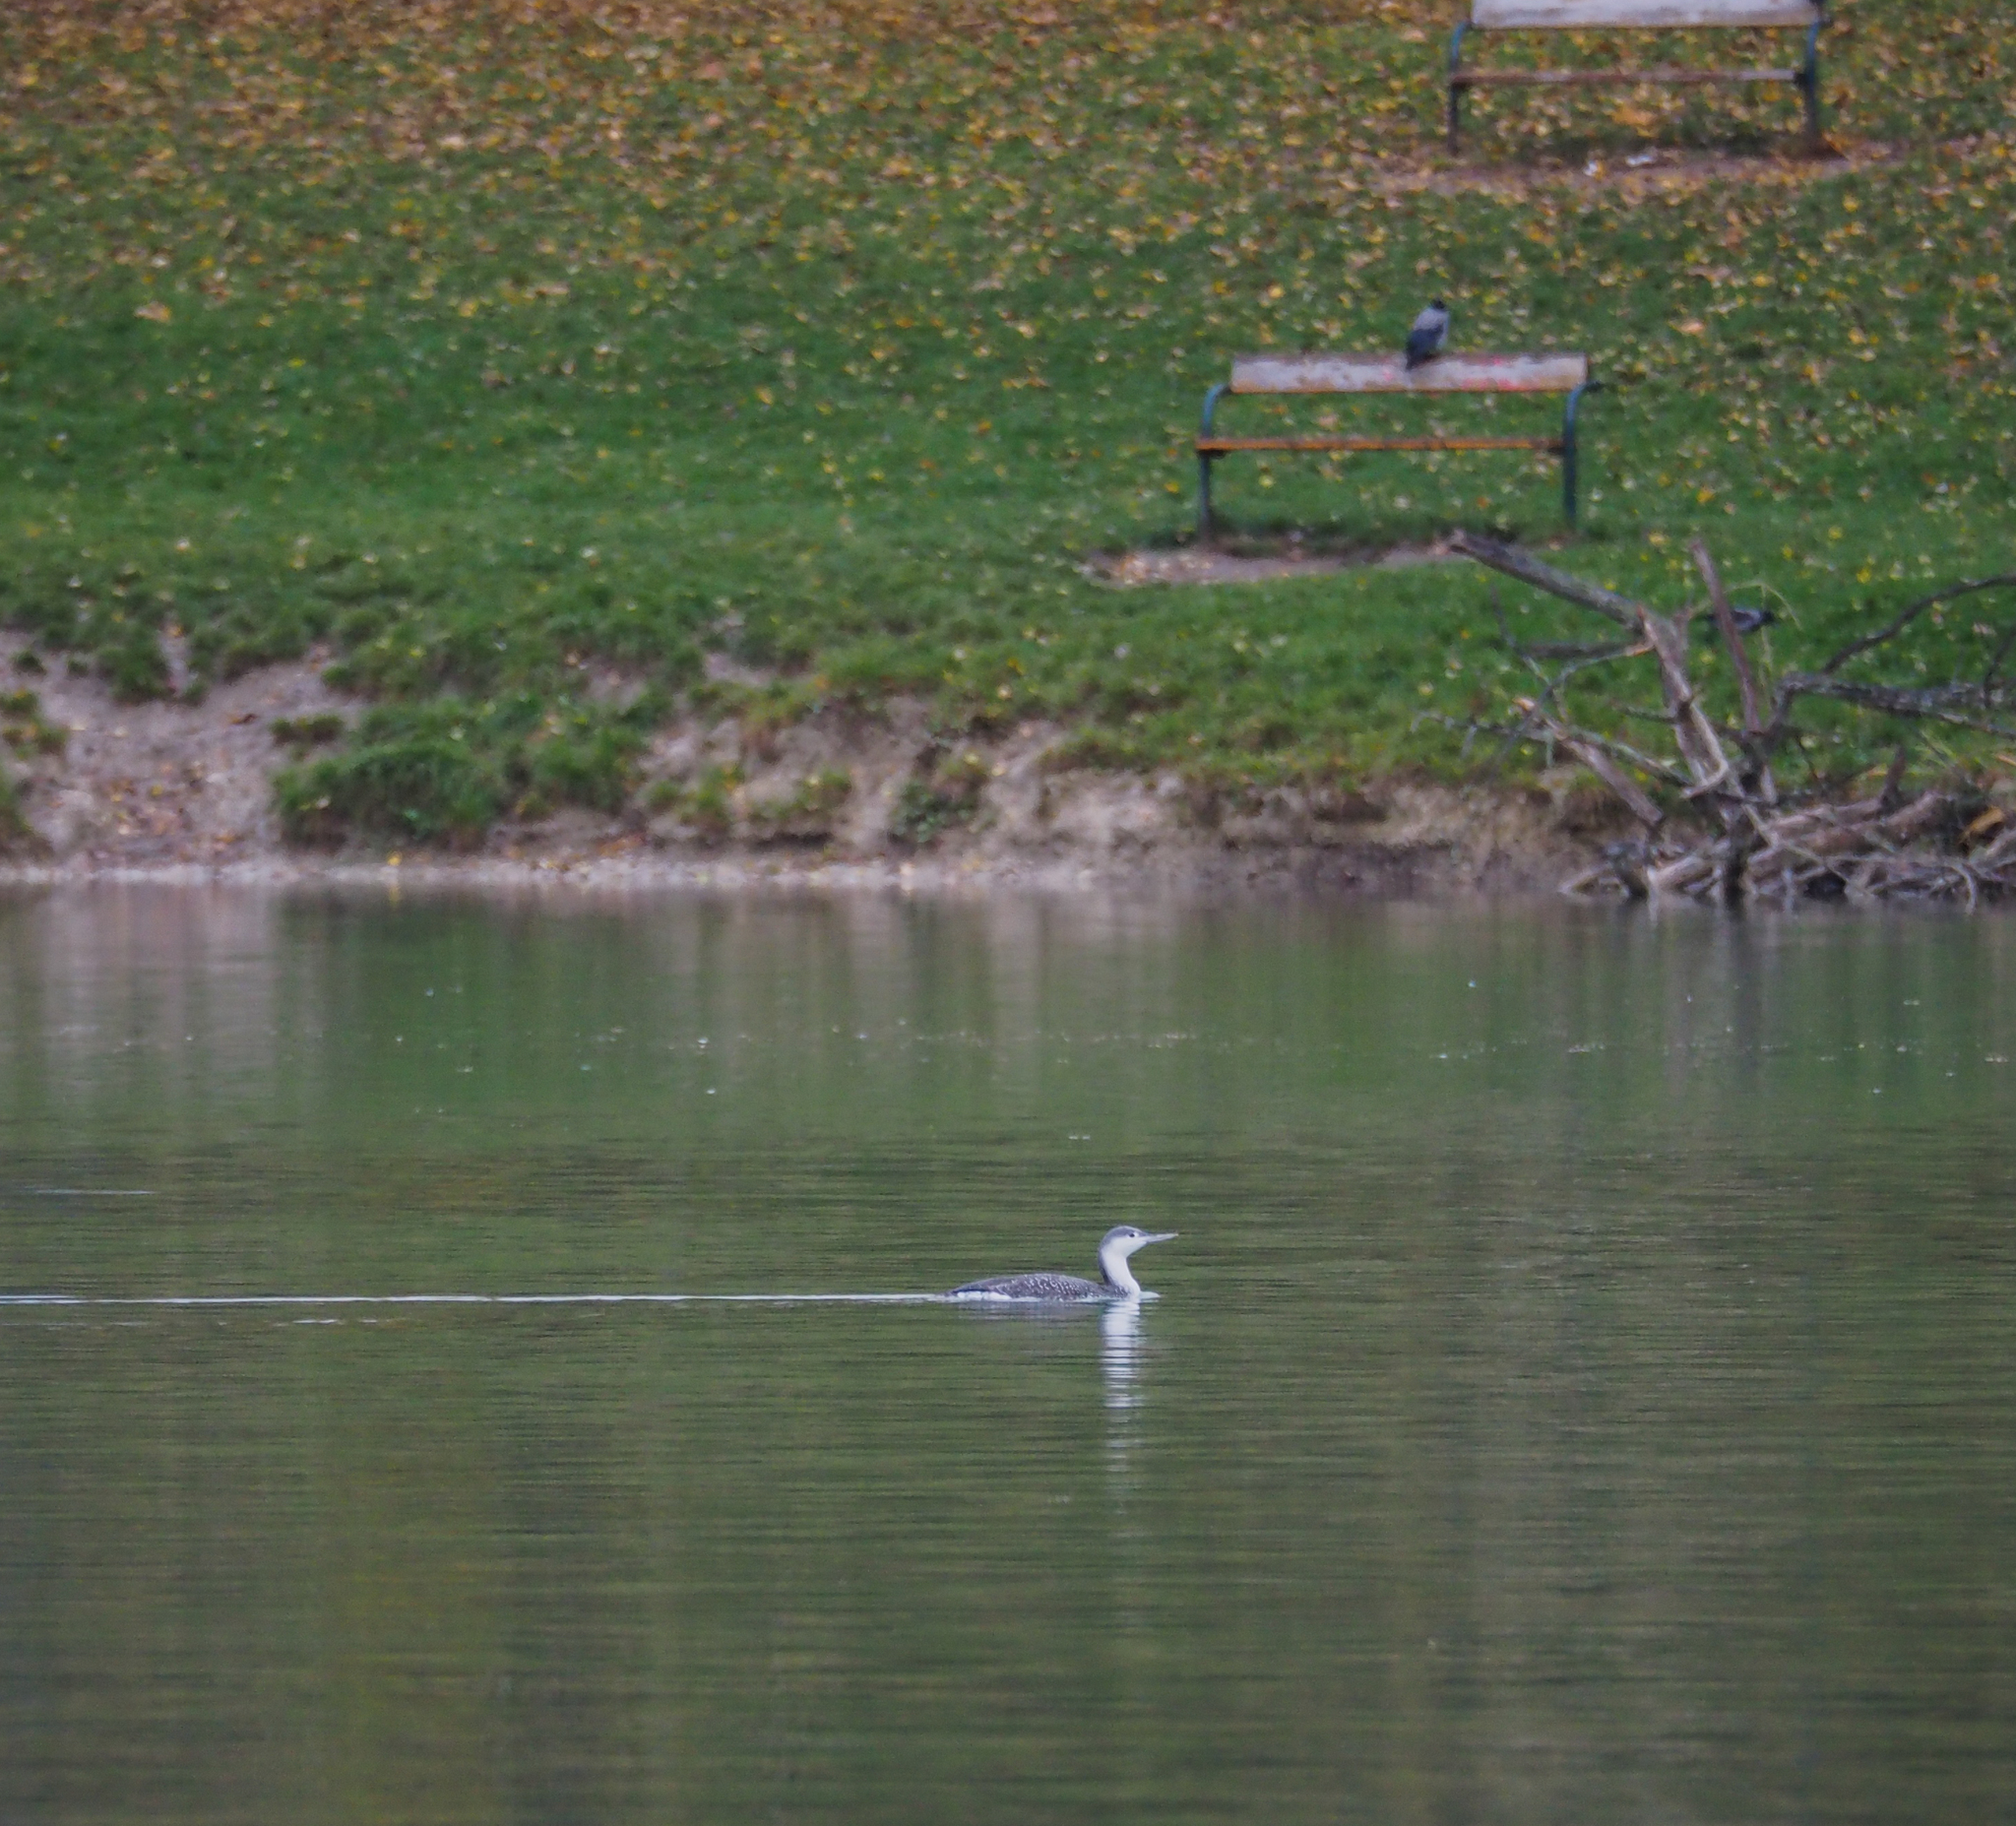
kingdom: Animalia
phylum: Chordata
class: Aves
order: Gaviiformes
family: Gaviidae
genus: Gavia
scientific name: Gavia stellata
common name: Red-throated loon
